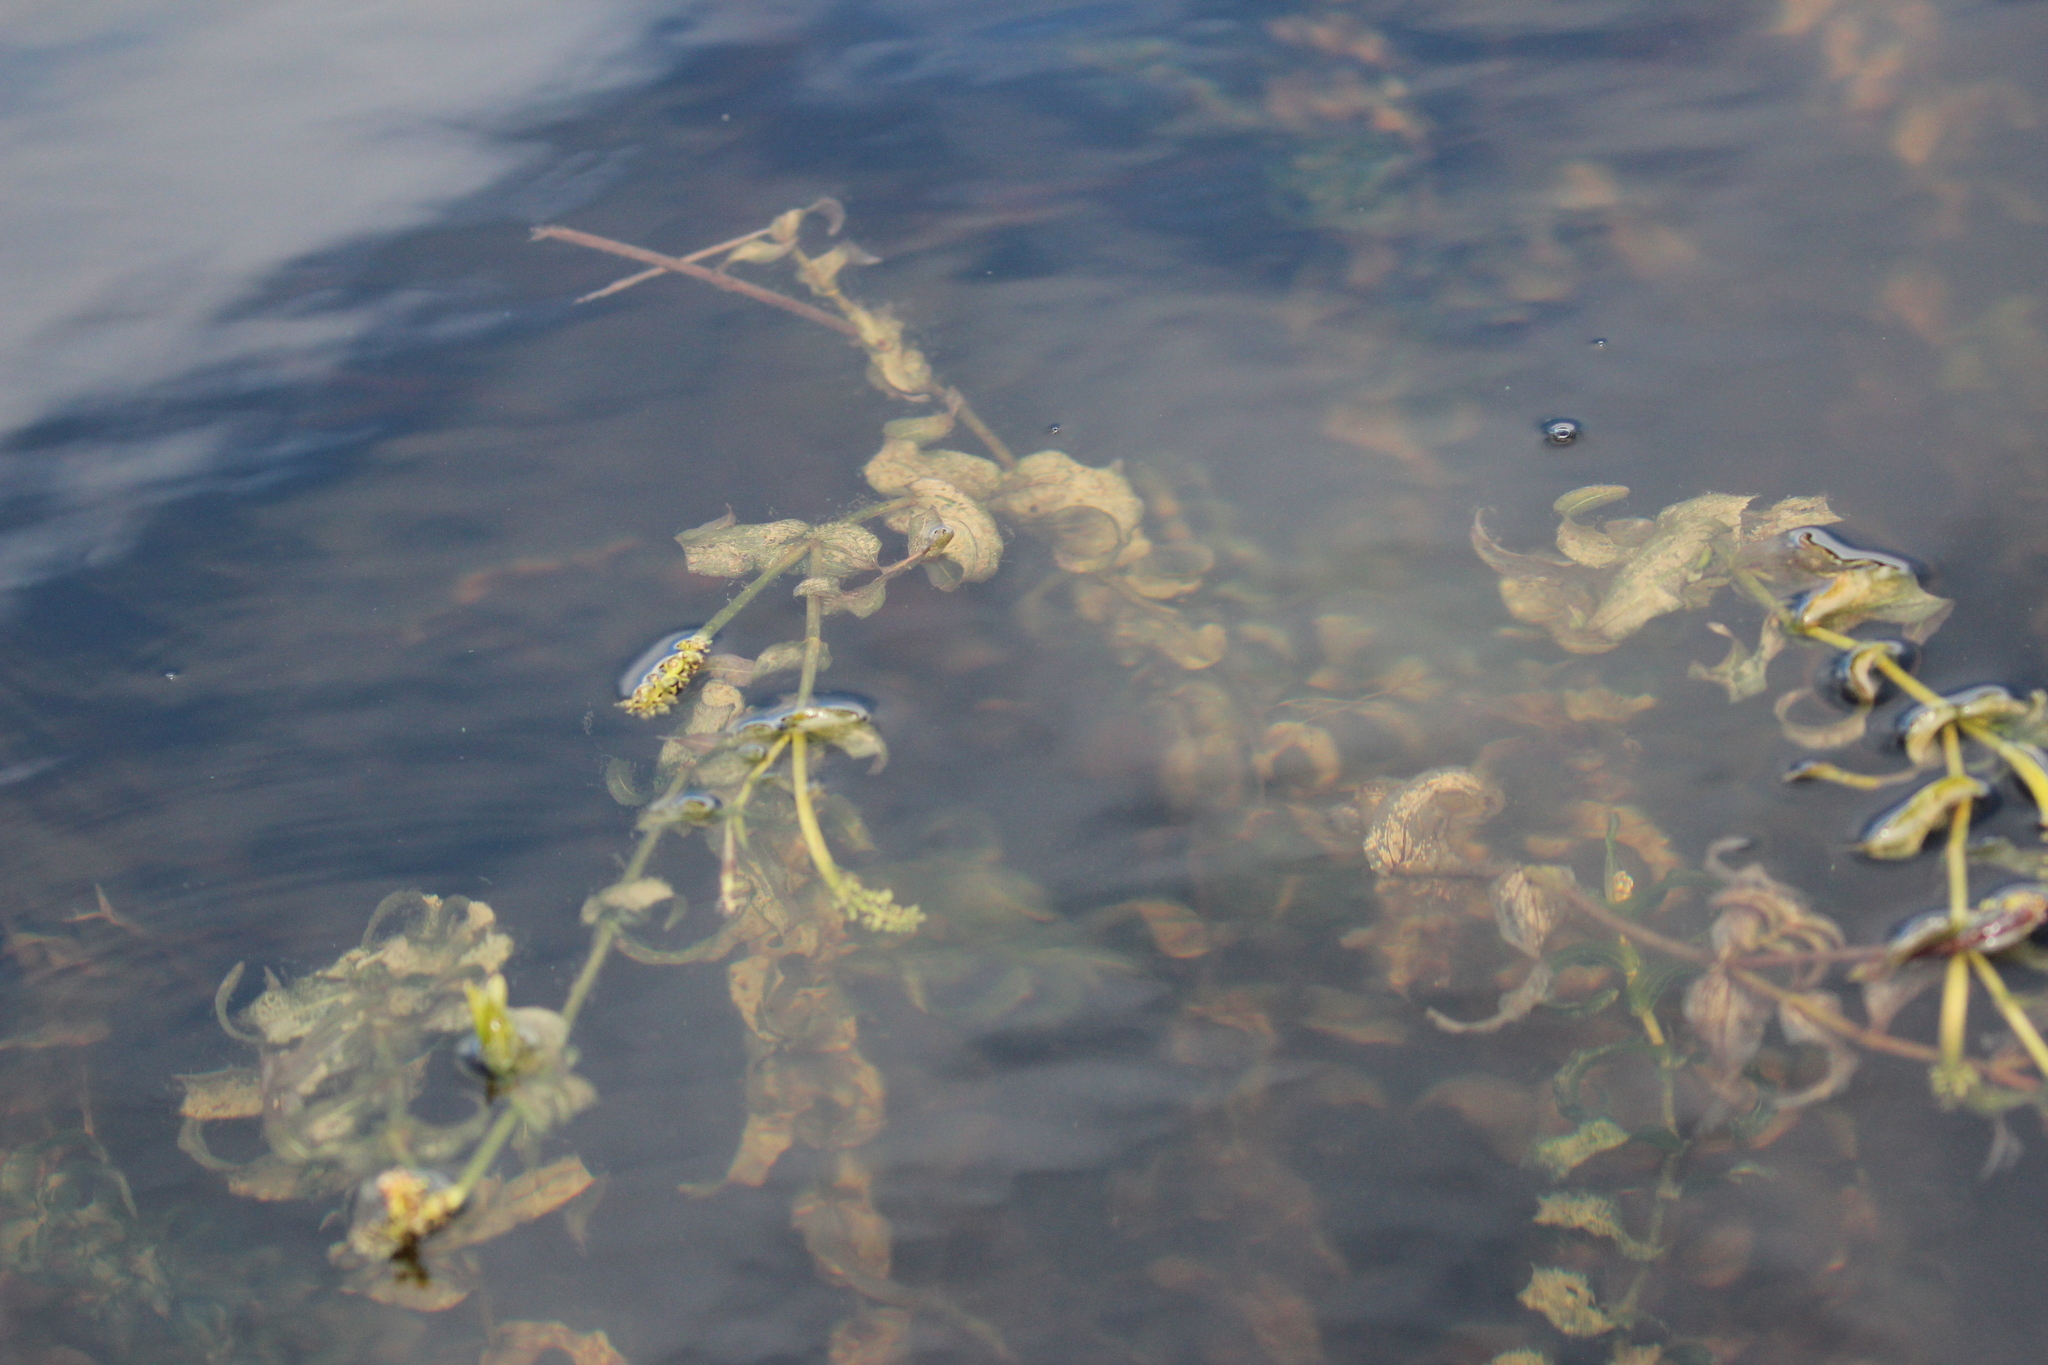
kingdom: Plantae
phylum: Tracheophyta
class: Liliopsida
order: Alismatales
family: Potamogetonaceae
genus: Potamogeton
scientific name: Potamogeton richardsonii
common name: Richardson's pondweed
